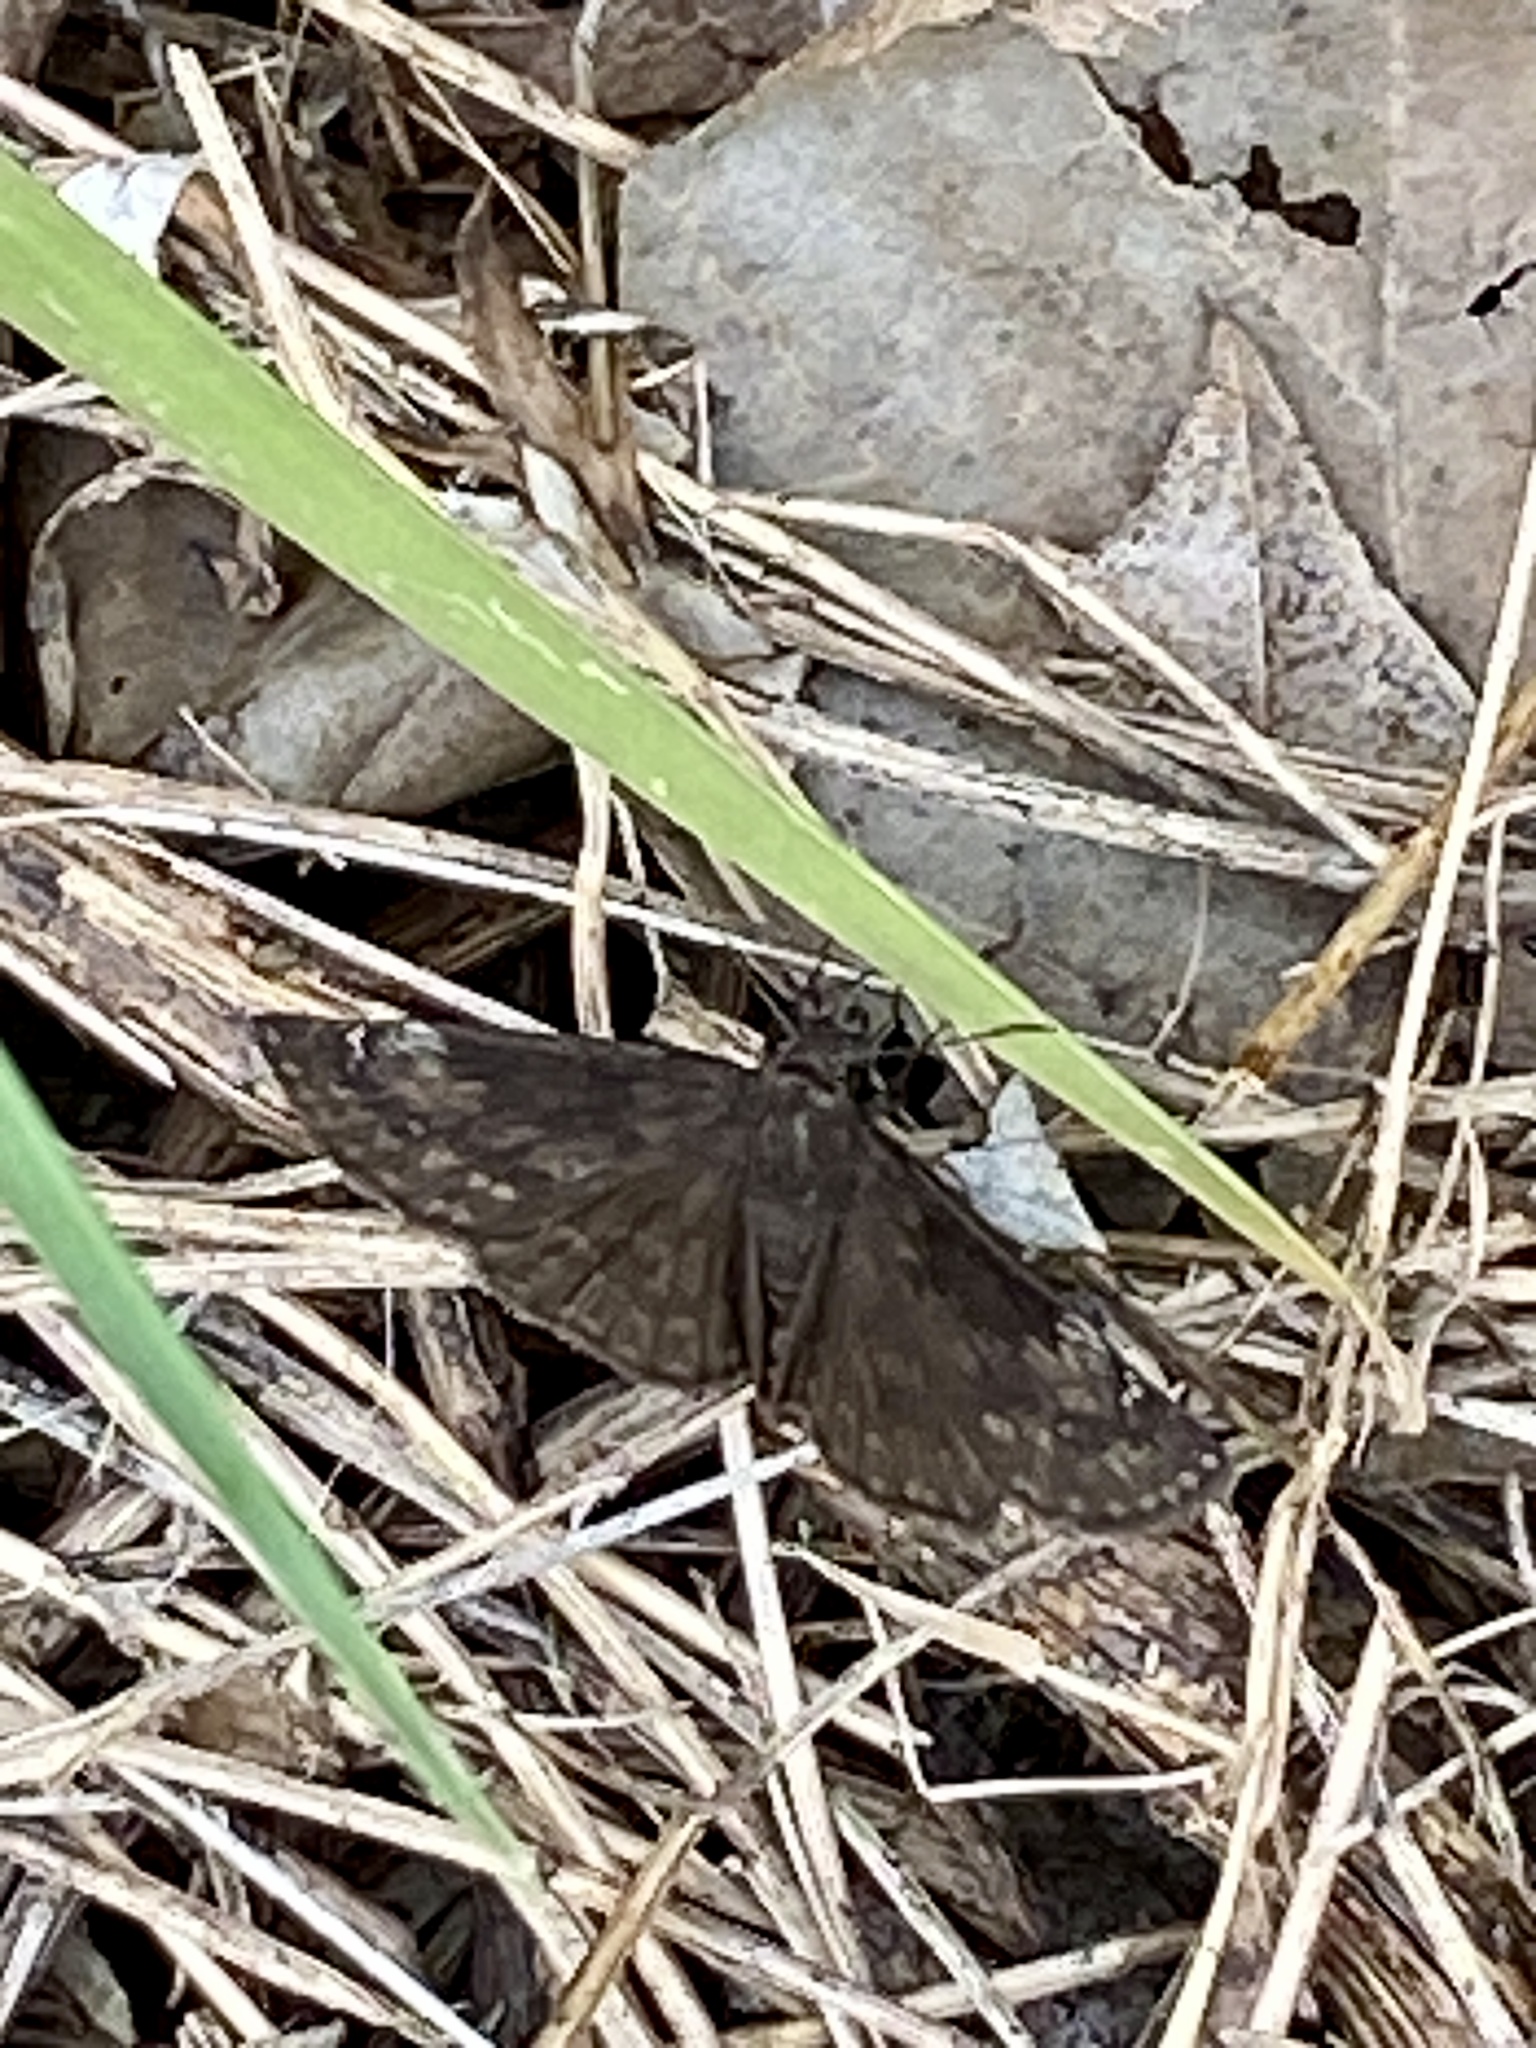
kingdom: Animalia
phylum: Arthropoda
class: Insecta
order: Lepidoptera
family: Hesperiidae
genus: Erynnis
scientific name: Erynnis baptisiae
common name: Wild indigo duskywing
